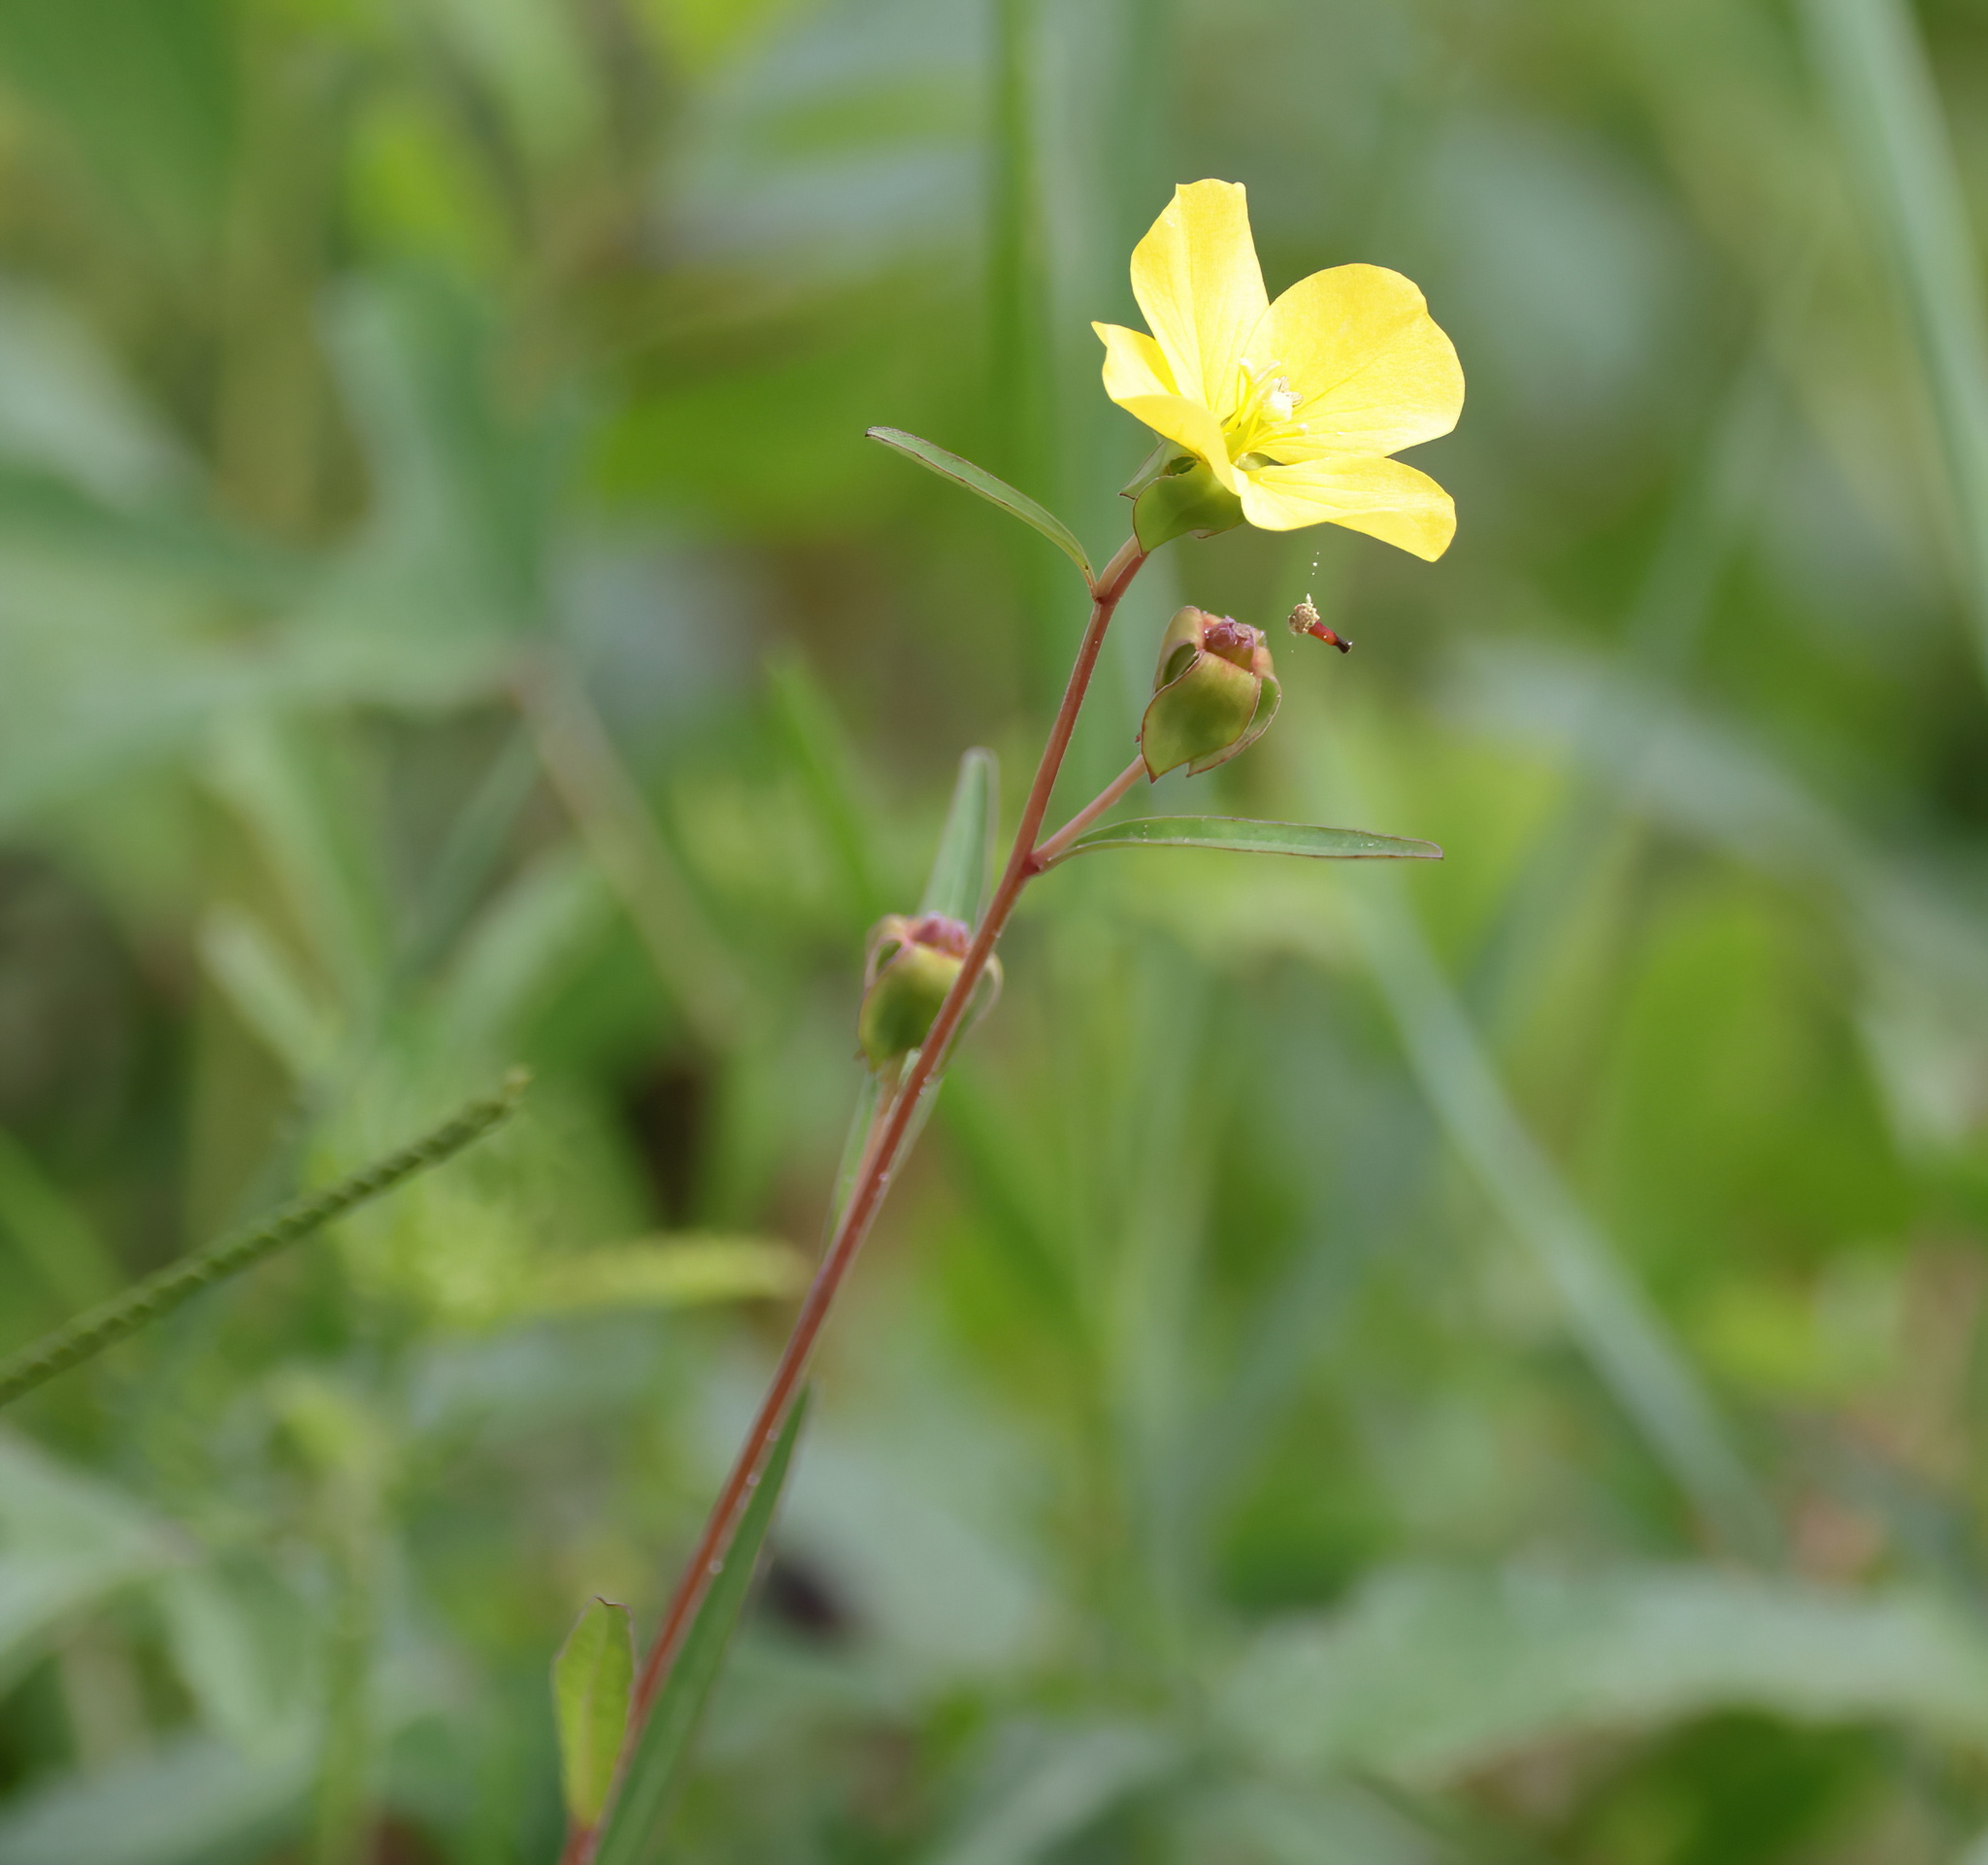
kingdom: Plantae
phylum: Tracheophyta
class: Magnoliopsida
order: Myrtales
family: Onagraceae
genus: Ludwigia
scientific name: Ludwigia maritima
